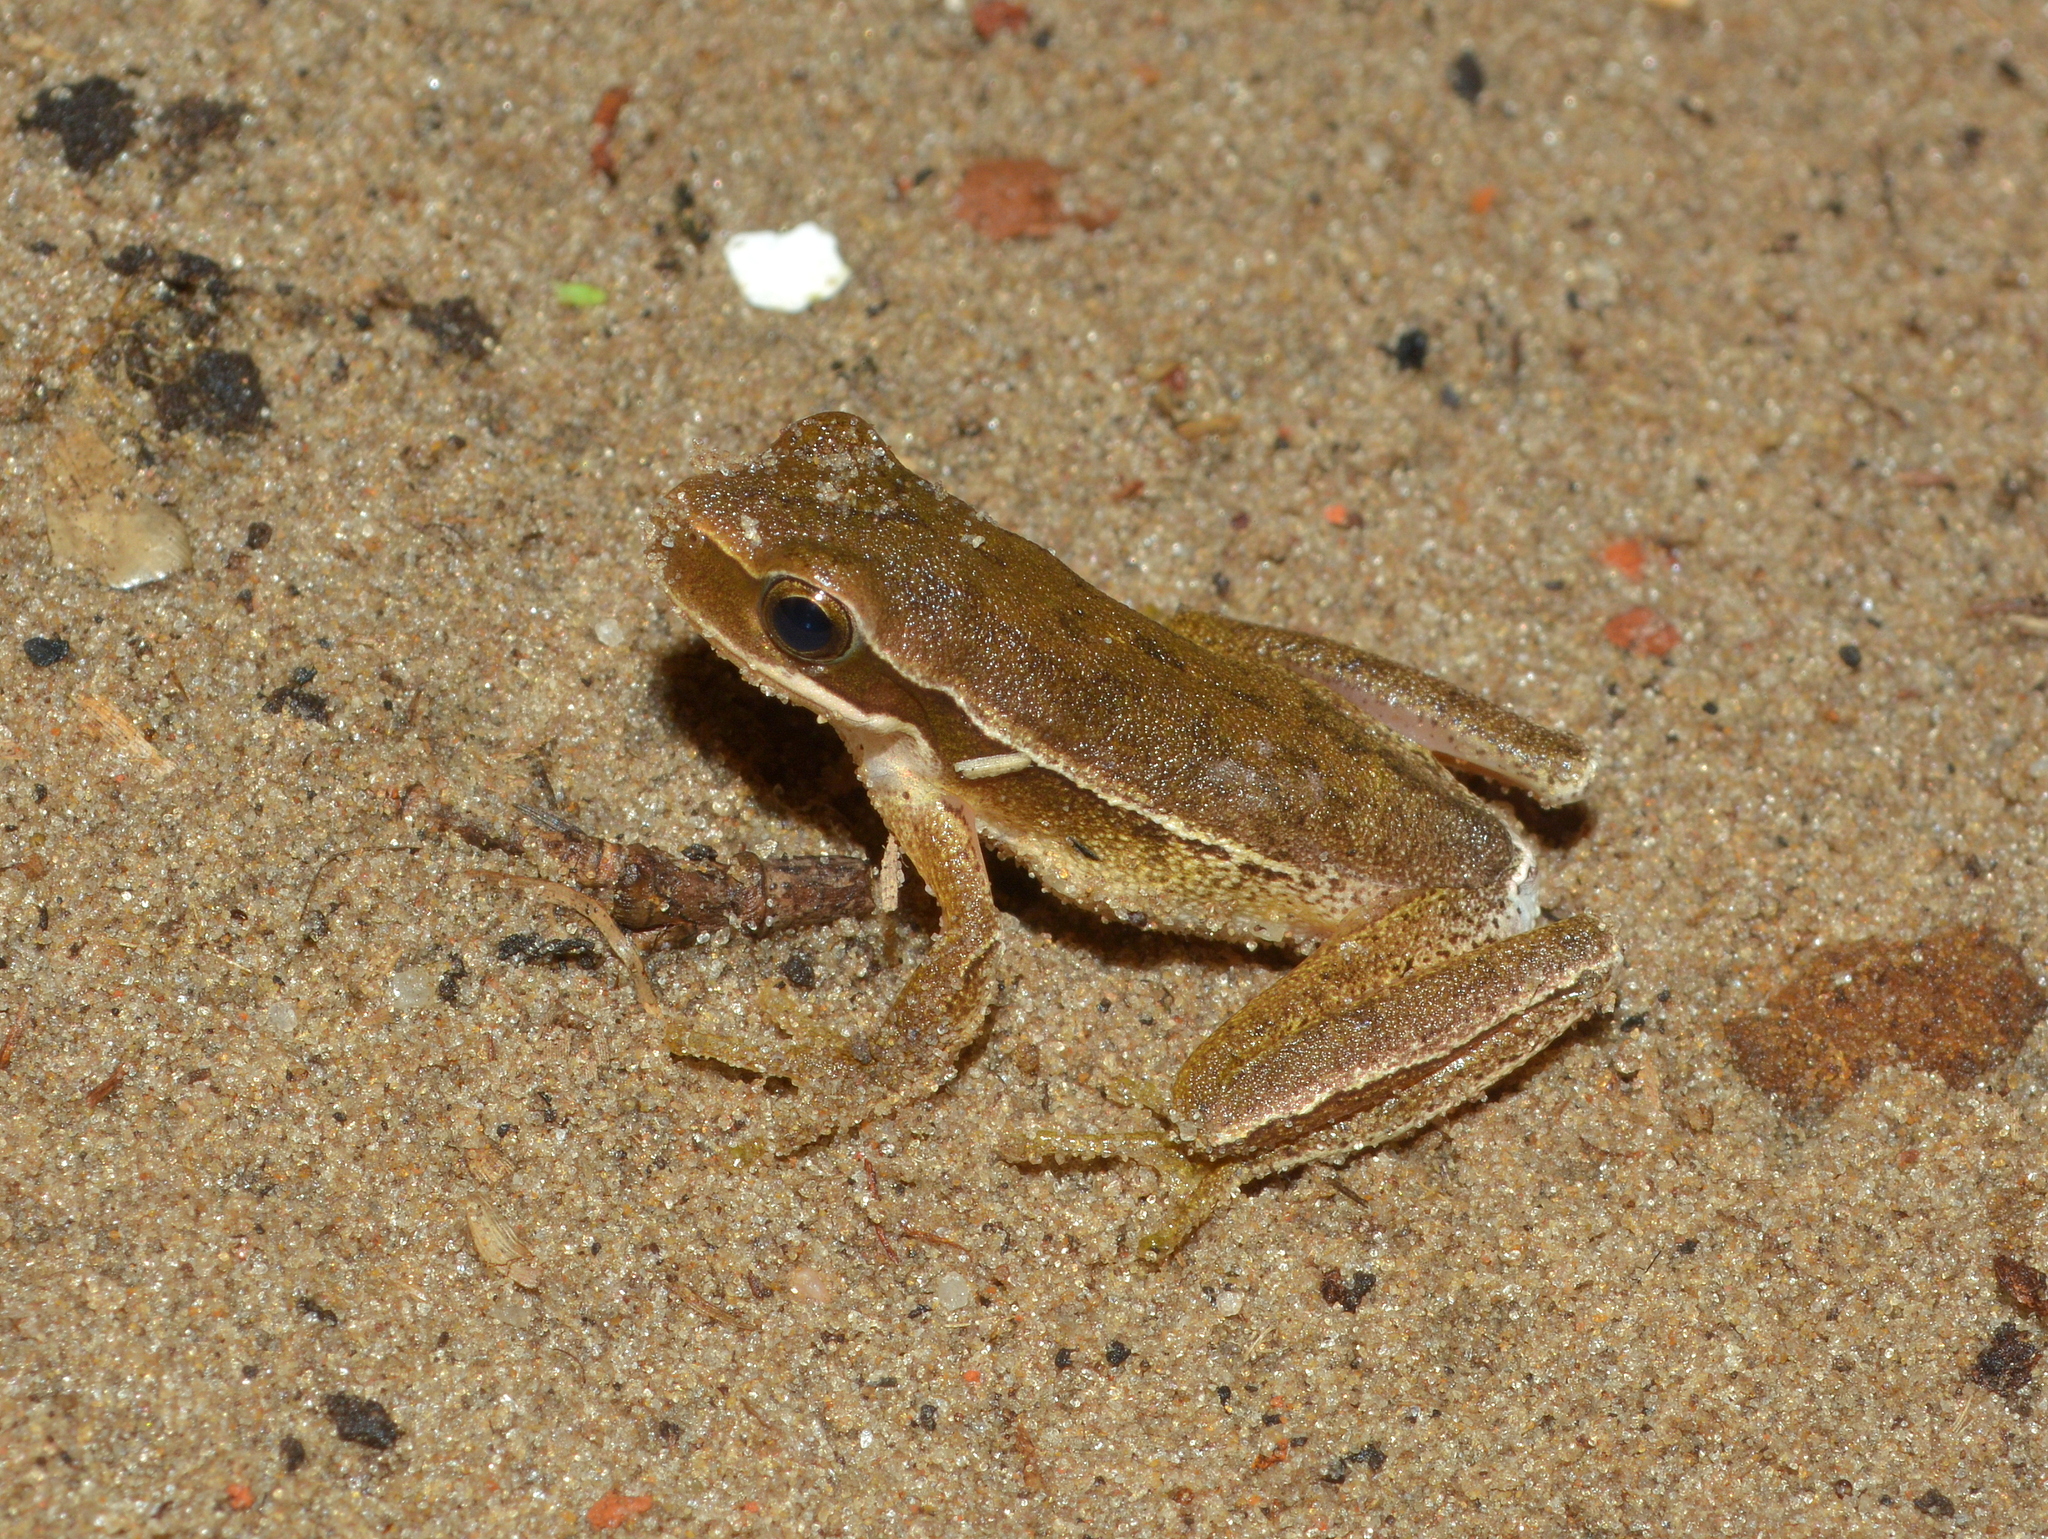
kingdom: Animalia
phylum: Chordata
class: Amphibia
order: Anura
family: Hylidae
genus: Boana
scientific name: Boana pulchella
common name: Montevideo treefrog
